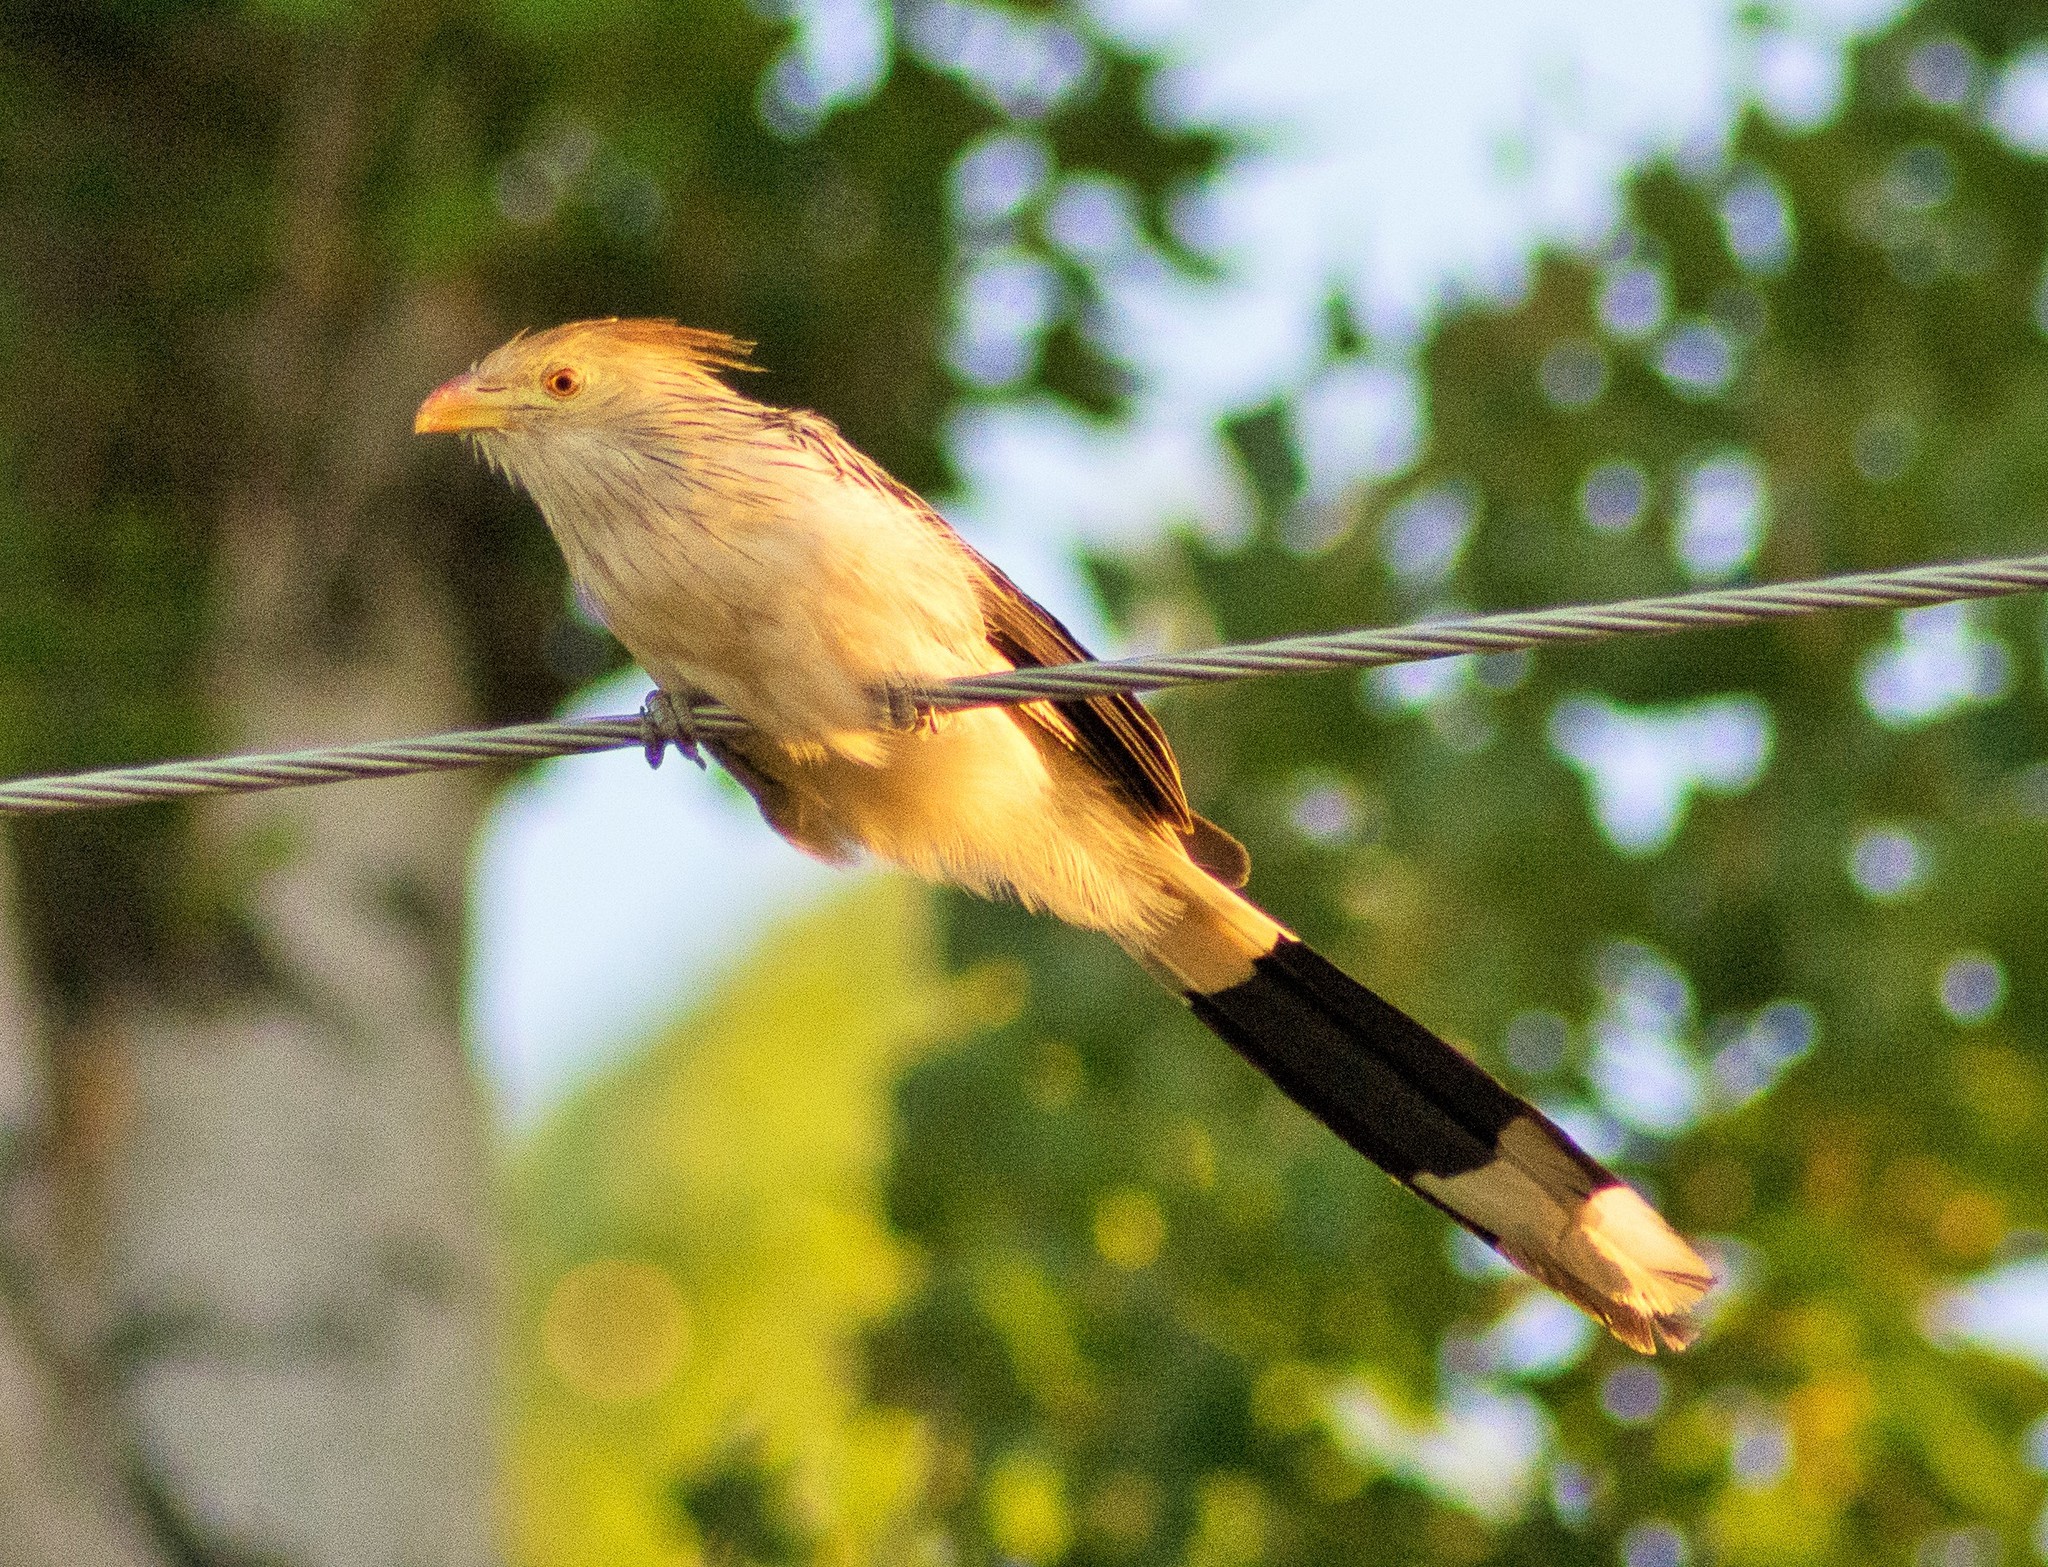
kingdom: Animalia
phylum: Chordata
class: Aves
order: Cuculiformes
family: Cuculidae
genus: Guira
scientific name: Guira guira
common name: Guira cuckoo
